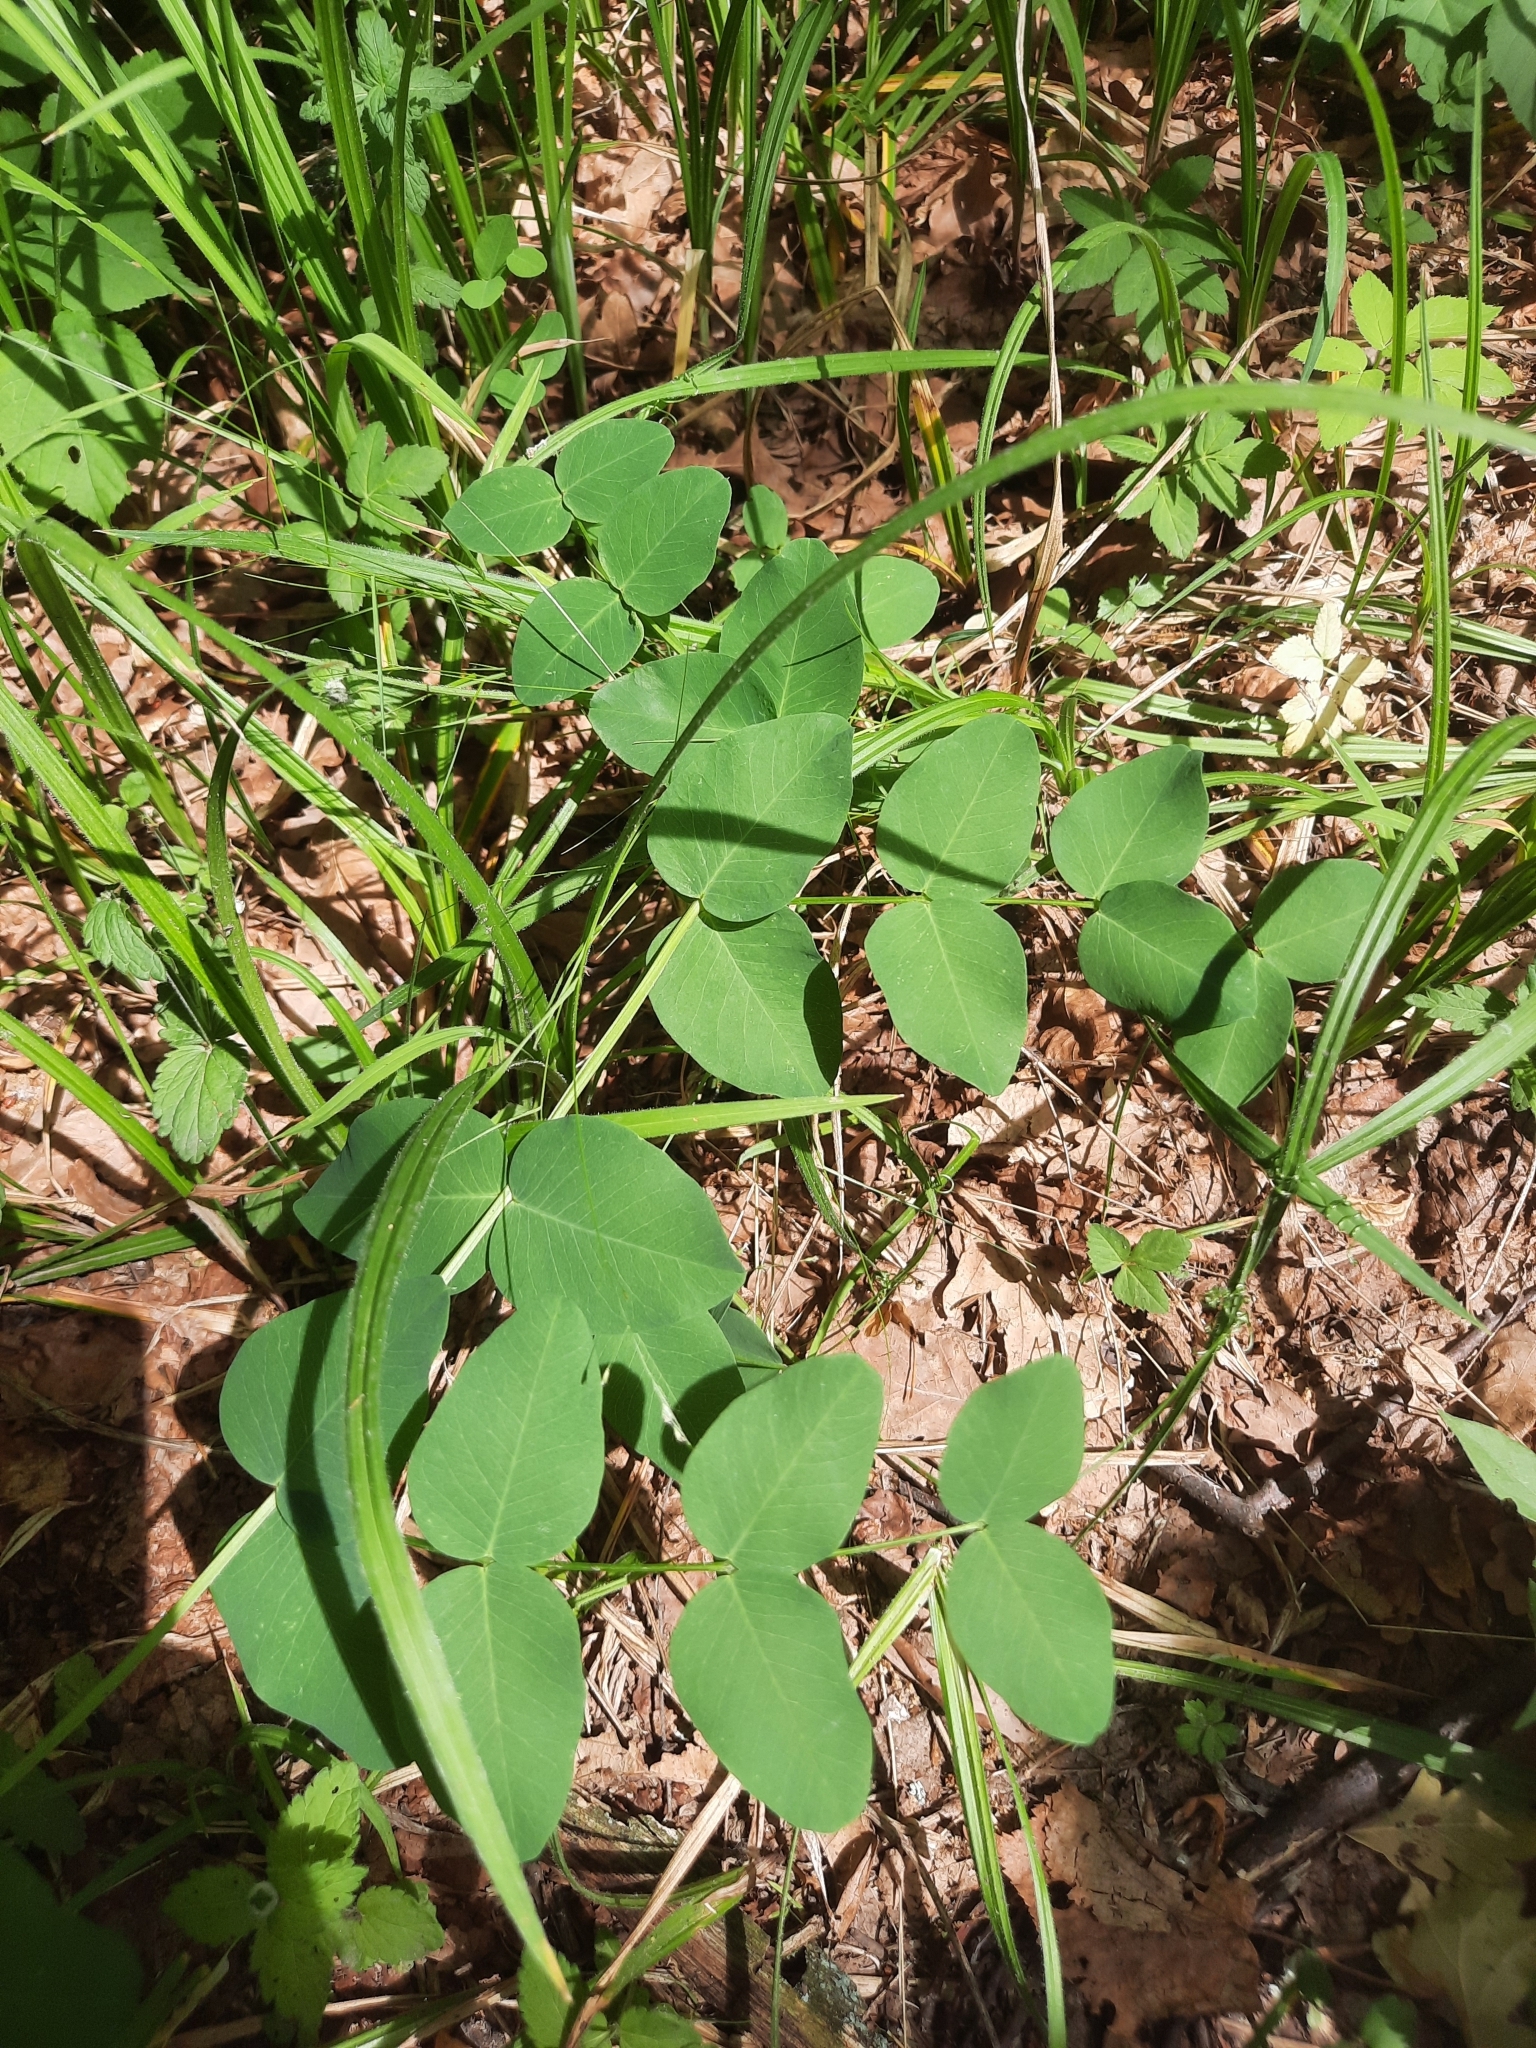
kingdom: Plantae
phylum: Tracheophyta
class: Magnoliopsida
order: Fabales
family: Fabaceae
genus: Astragalus
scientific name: Astragalus glycyphyllos
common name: Wild liquorice
